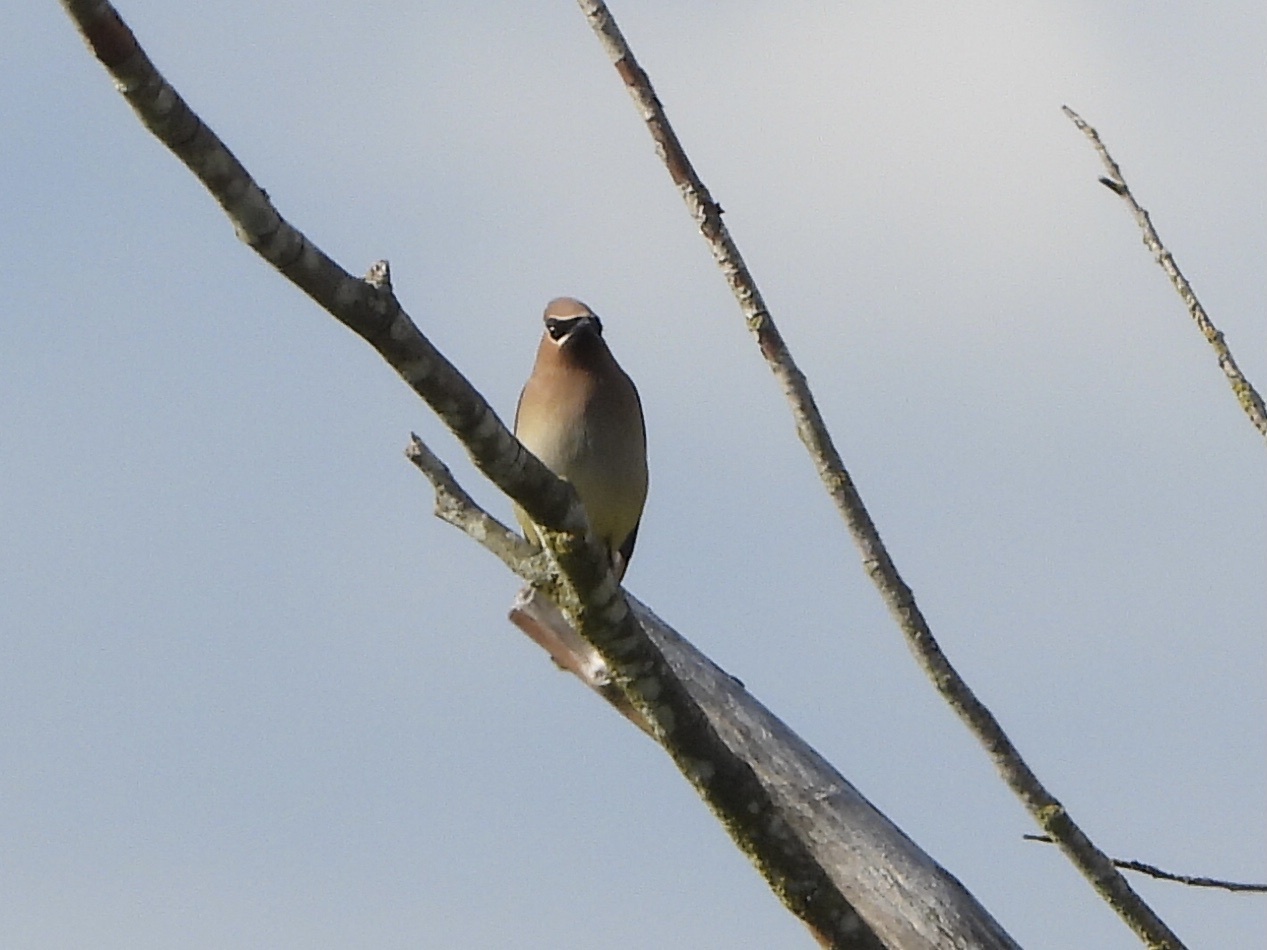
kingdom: Animalia
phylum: Chordata
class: Aves
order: Passeriformes
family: Bombycillidae
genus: Bombycilla
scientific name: Bombycilla cedrorum
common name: Cedar waxwing
